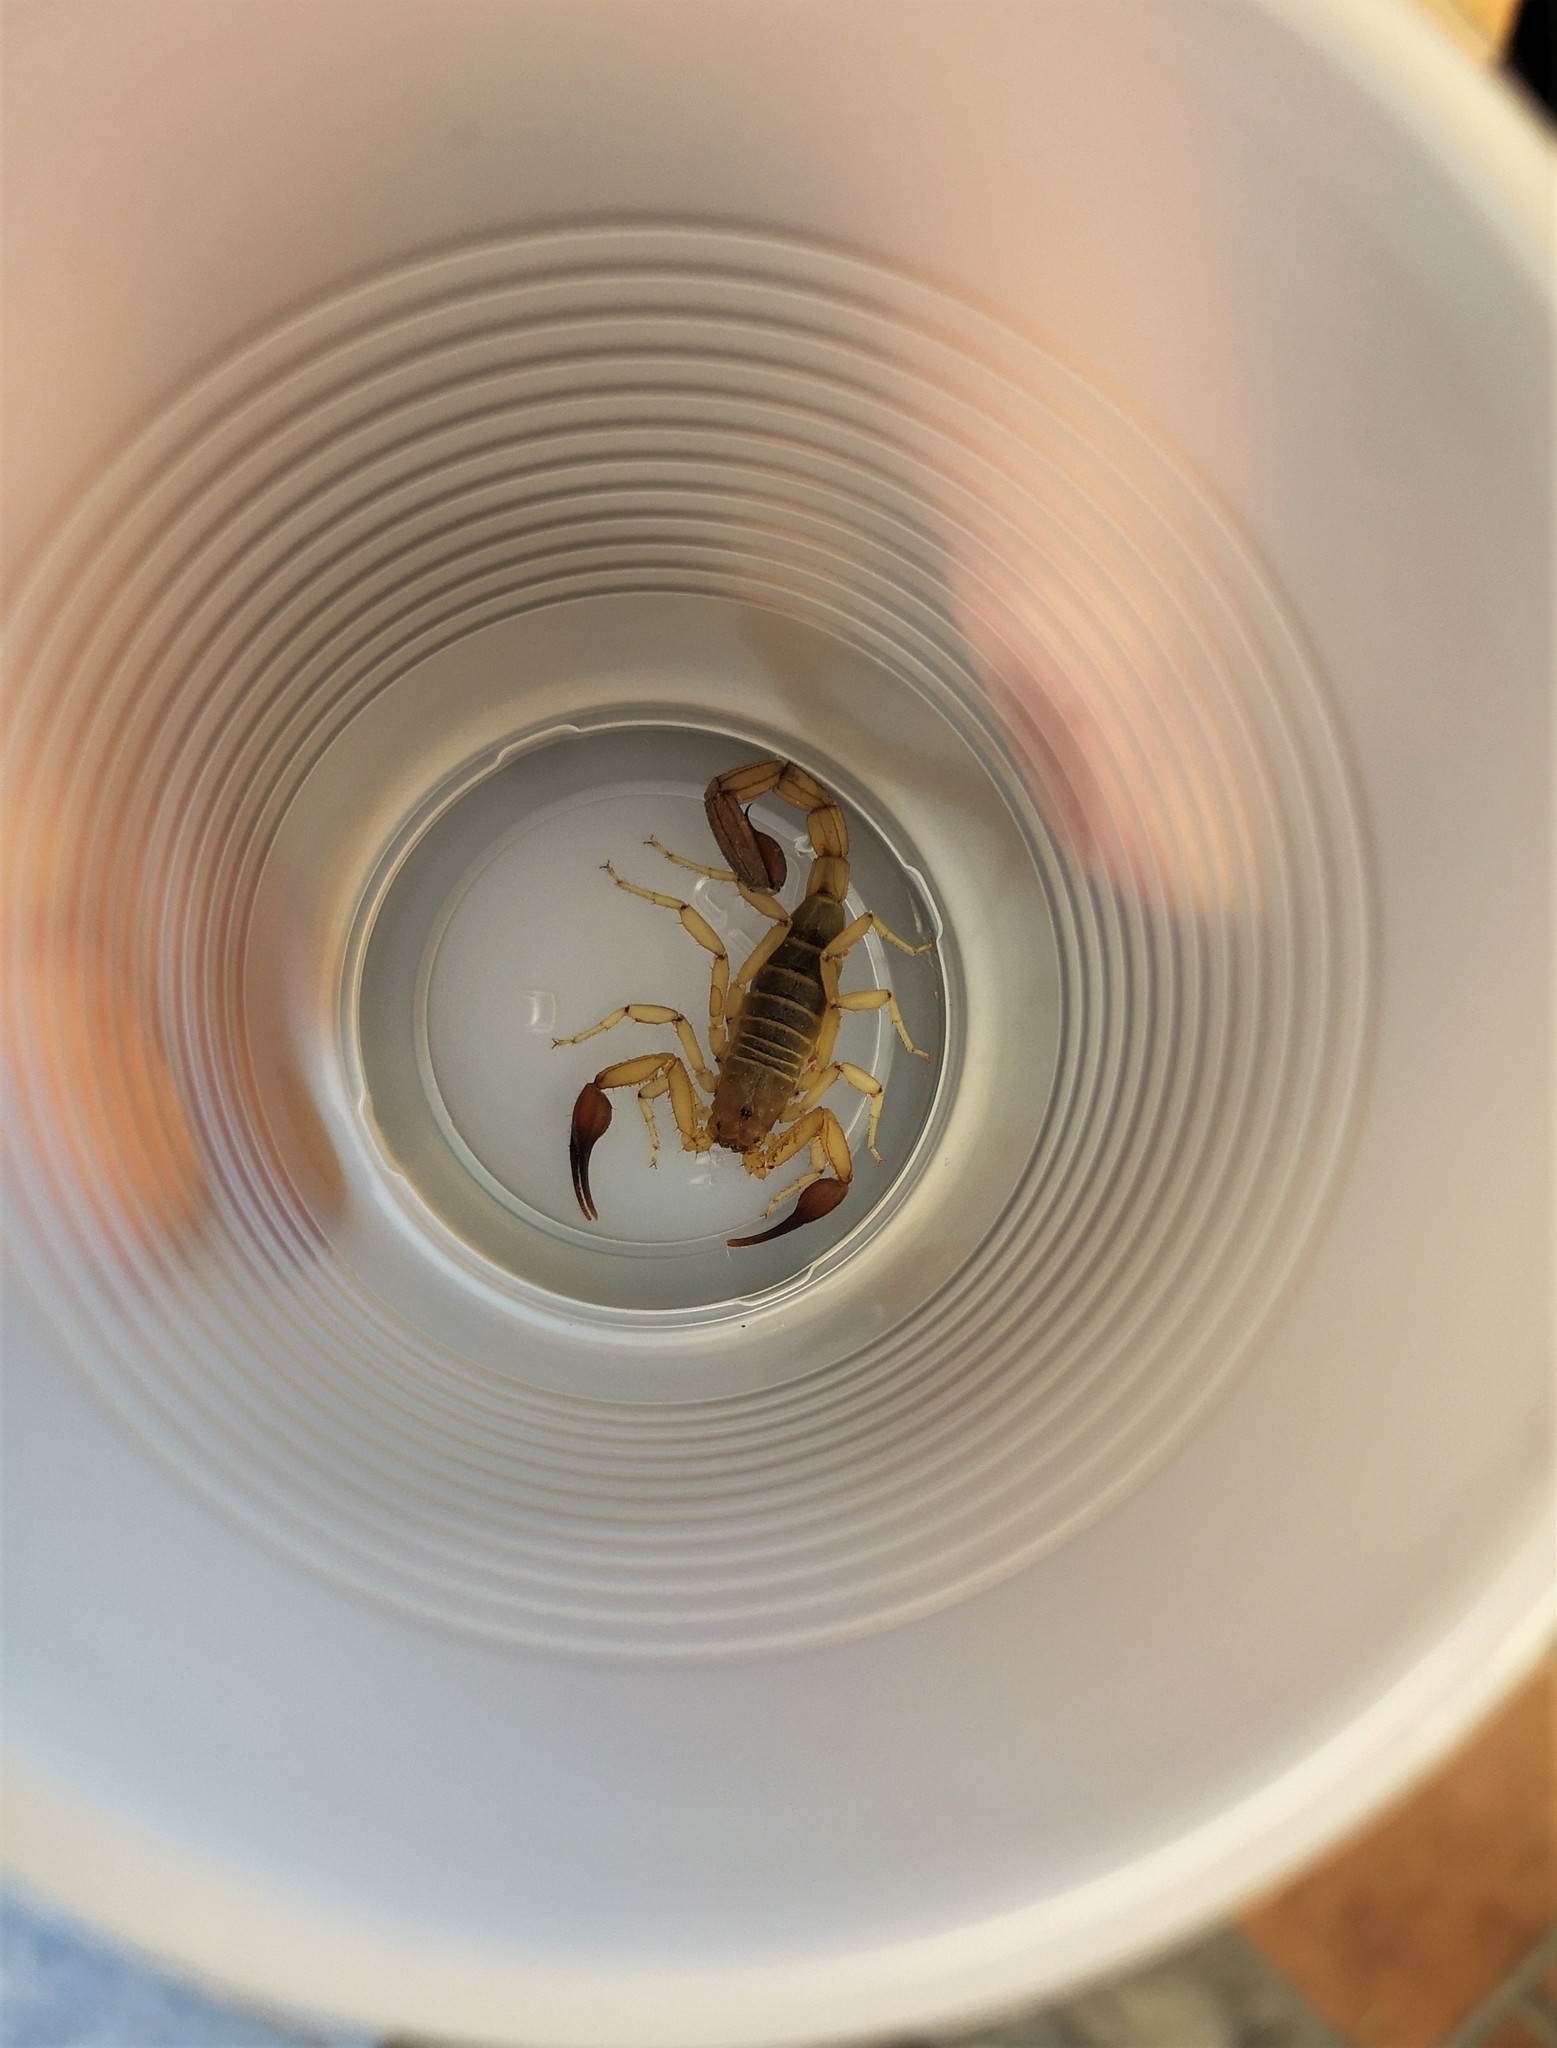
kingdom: Animalia
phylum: Arthropoda
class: Arachnida
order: Scorpiones
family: Vaejovidae
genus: Franckeus
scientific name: Franckeus rubrimanus
